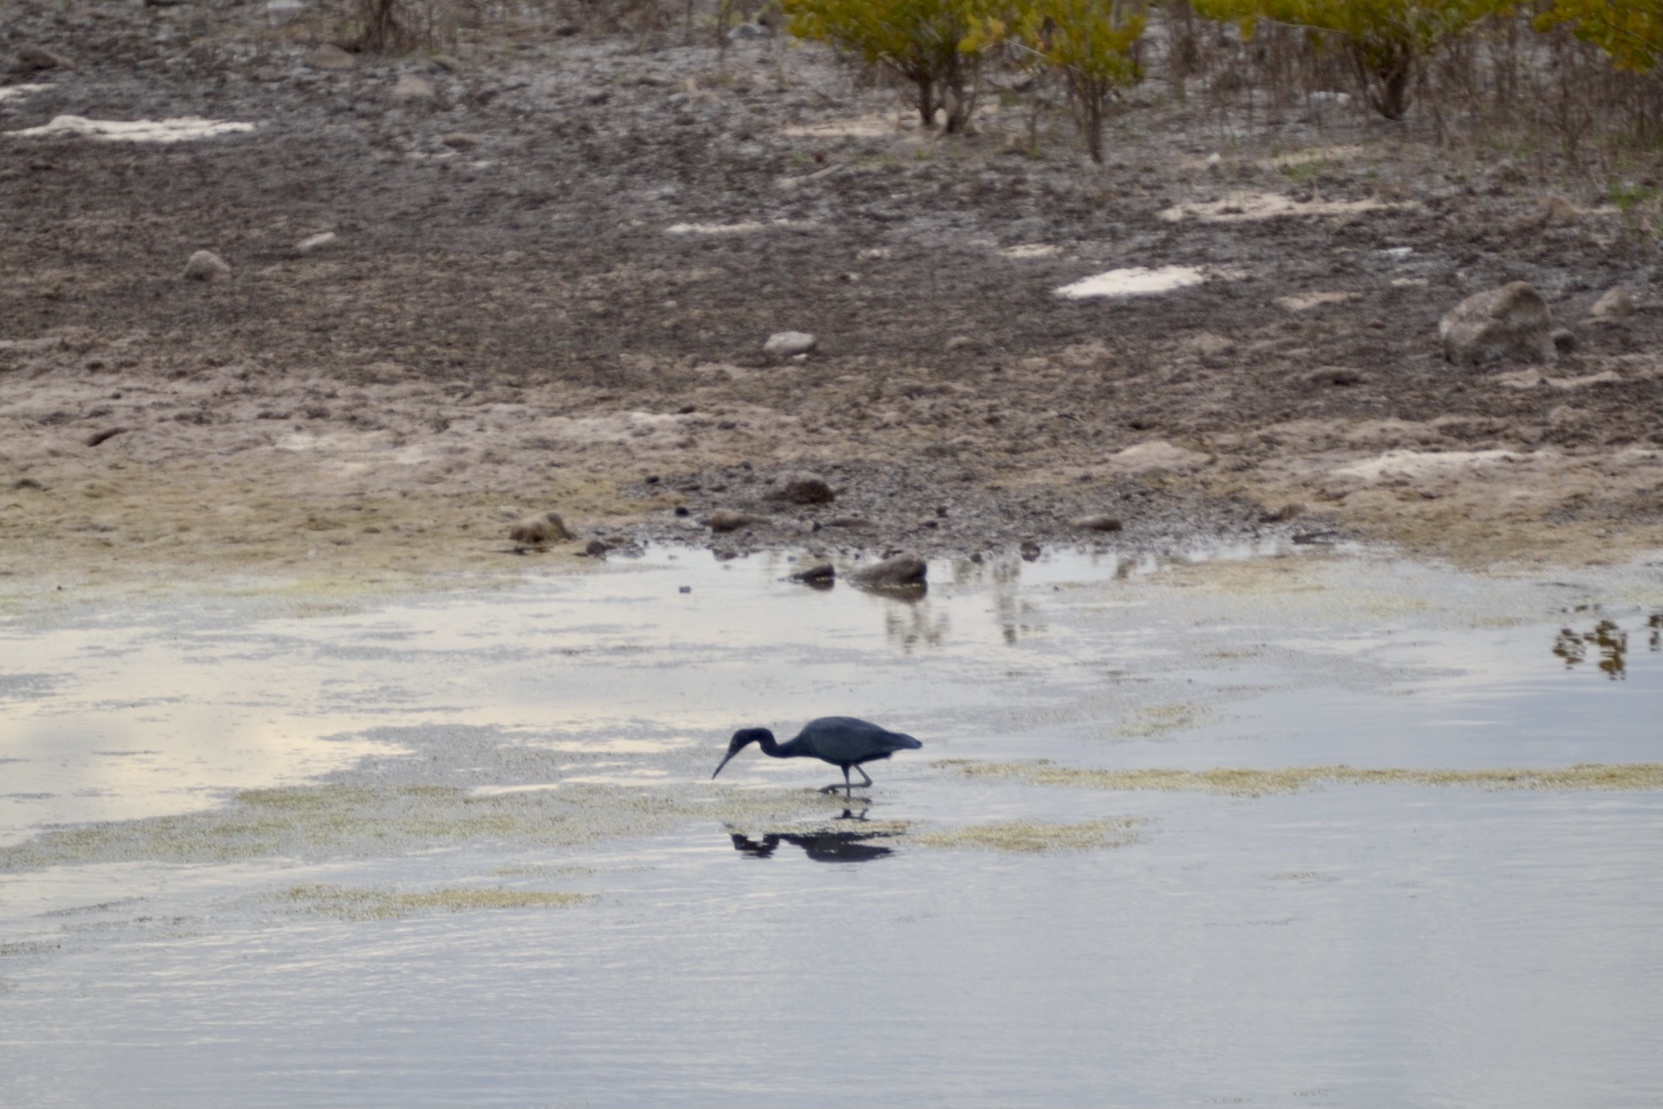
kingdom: Animalia
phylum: Chordata
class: Aves
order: Pelecaniformes
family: Ardeidae
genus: Egretta
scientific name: Egretta caerulea
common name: Little blue heron
